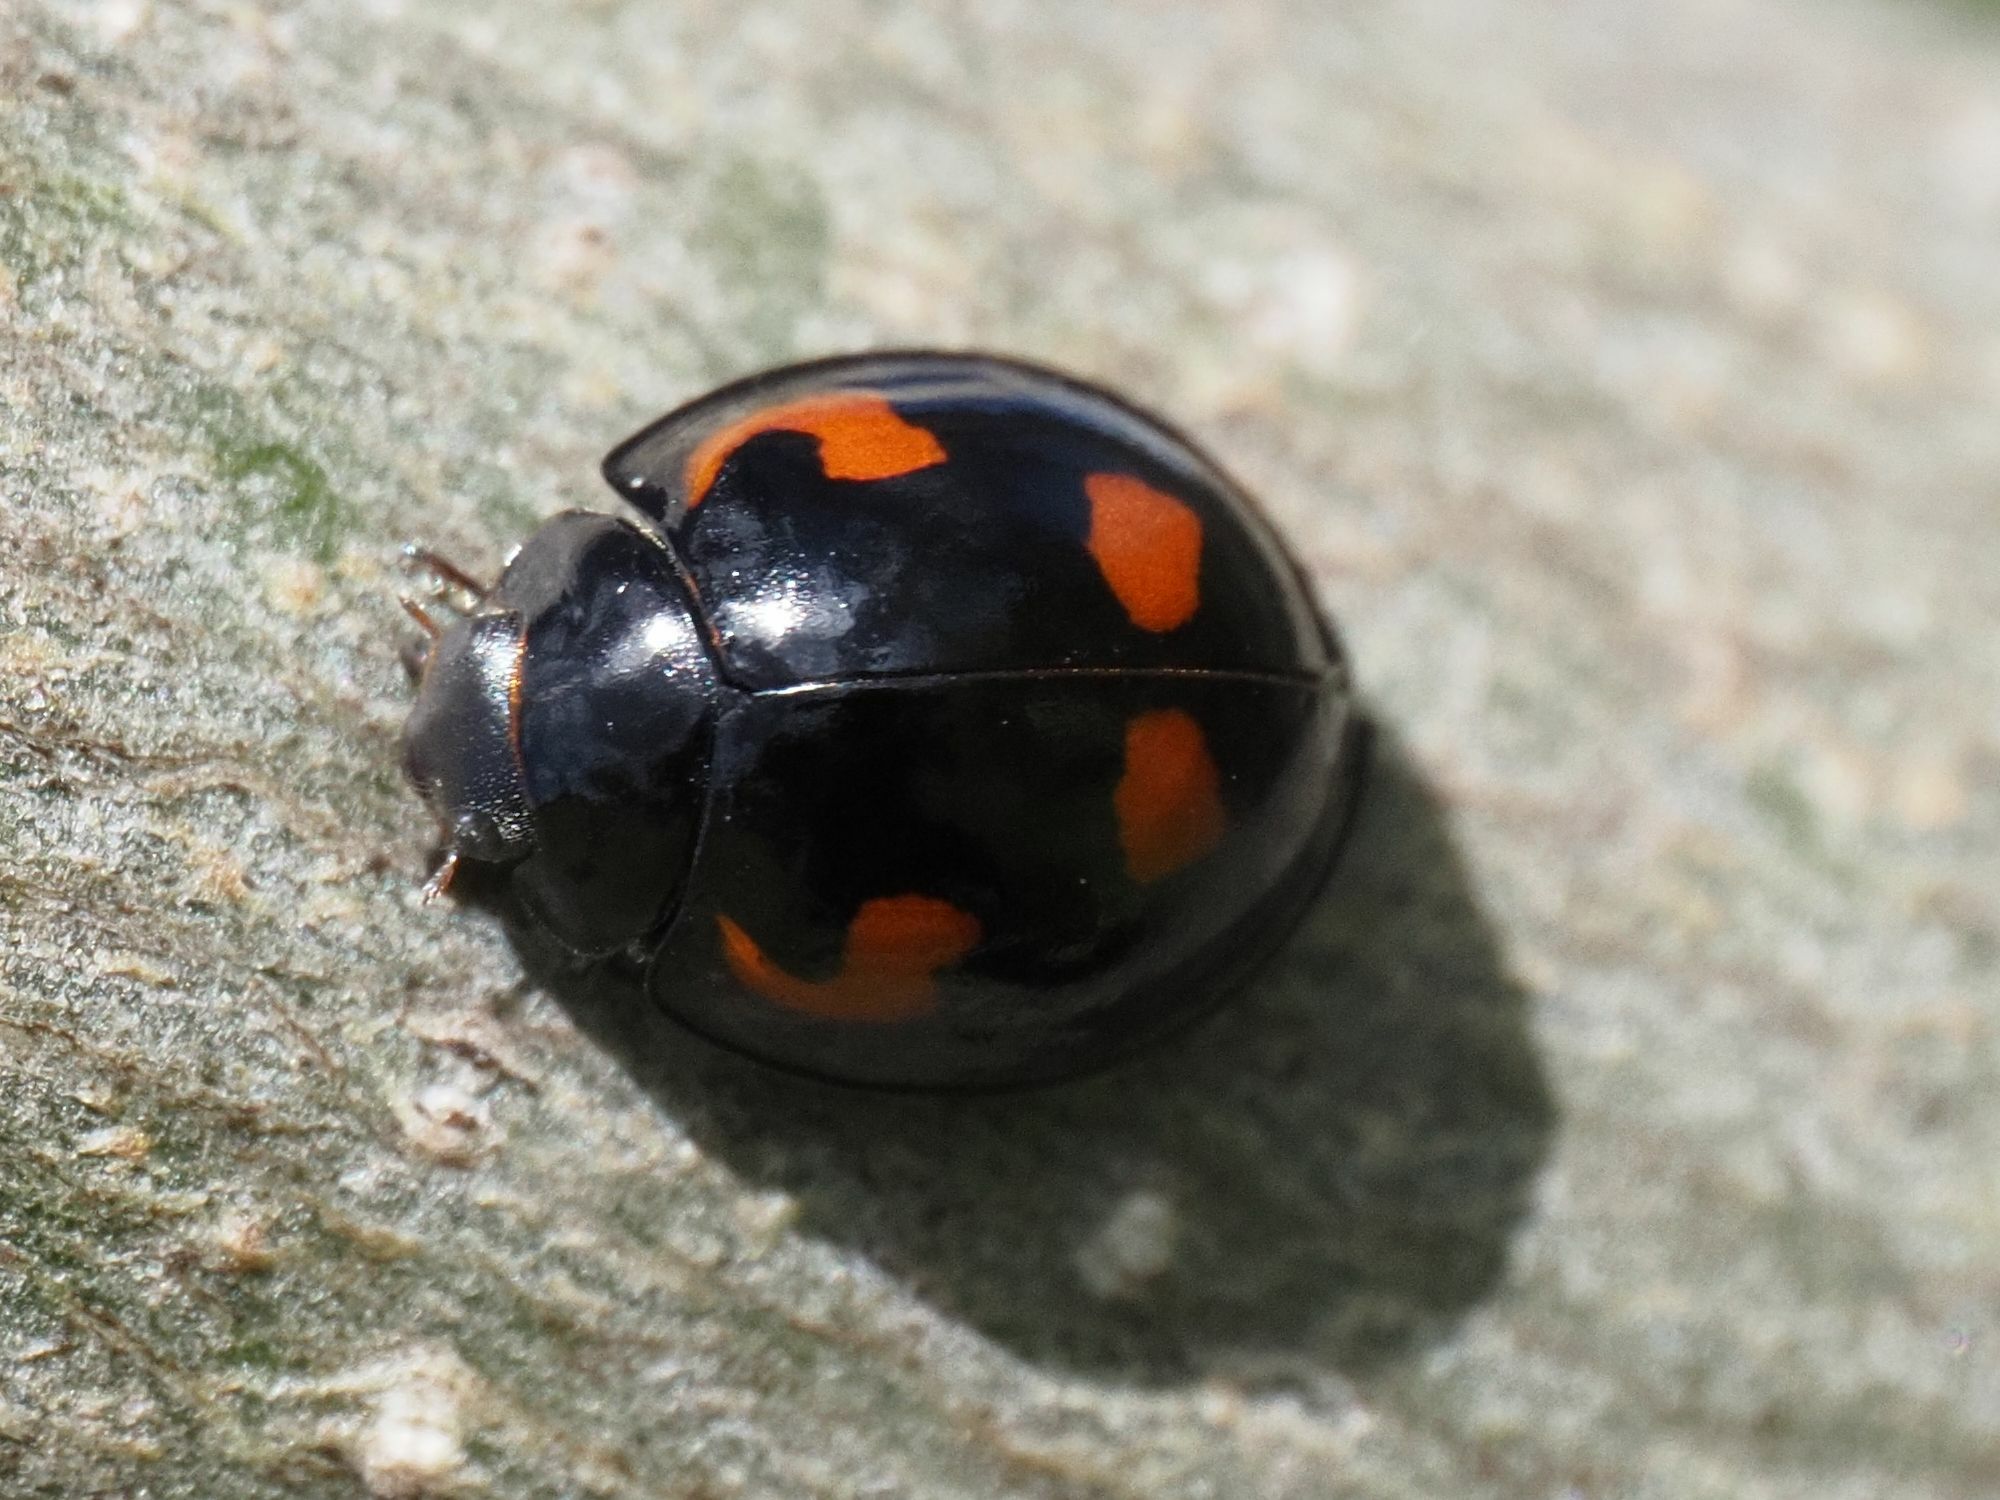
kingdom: Animalia
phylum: Arthropoda
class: Insecta
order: Coleoptera
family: Coccinellidae
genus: Brumus
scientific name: Brumus quadripustulatus
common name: Ladybird beetle
